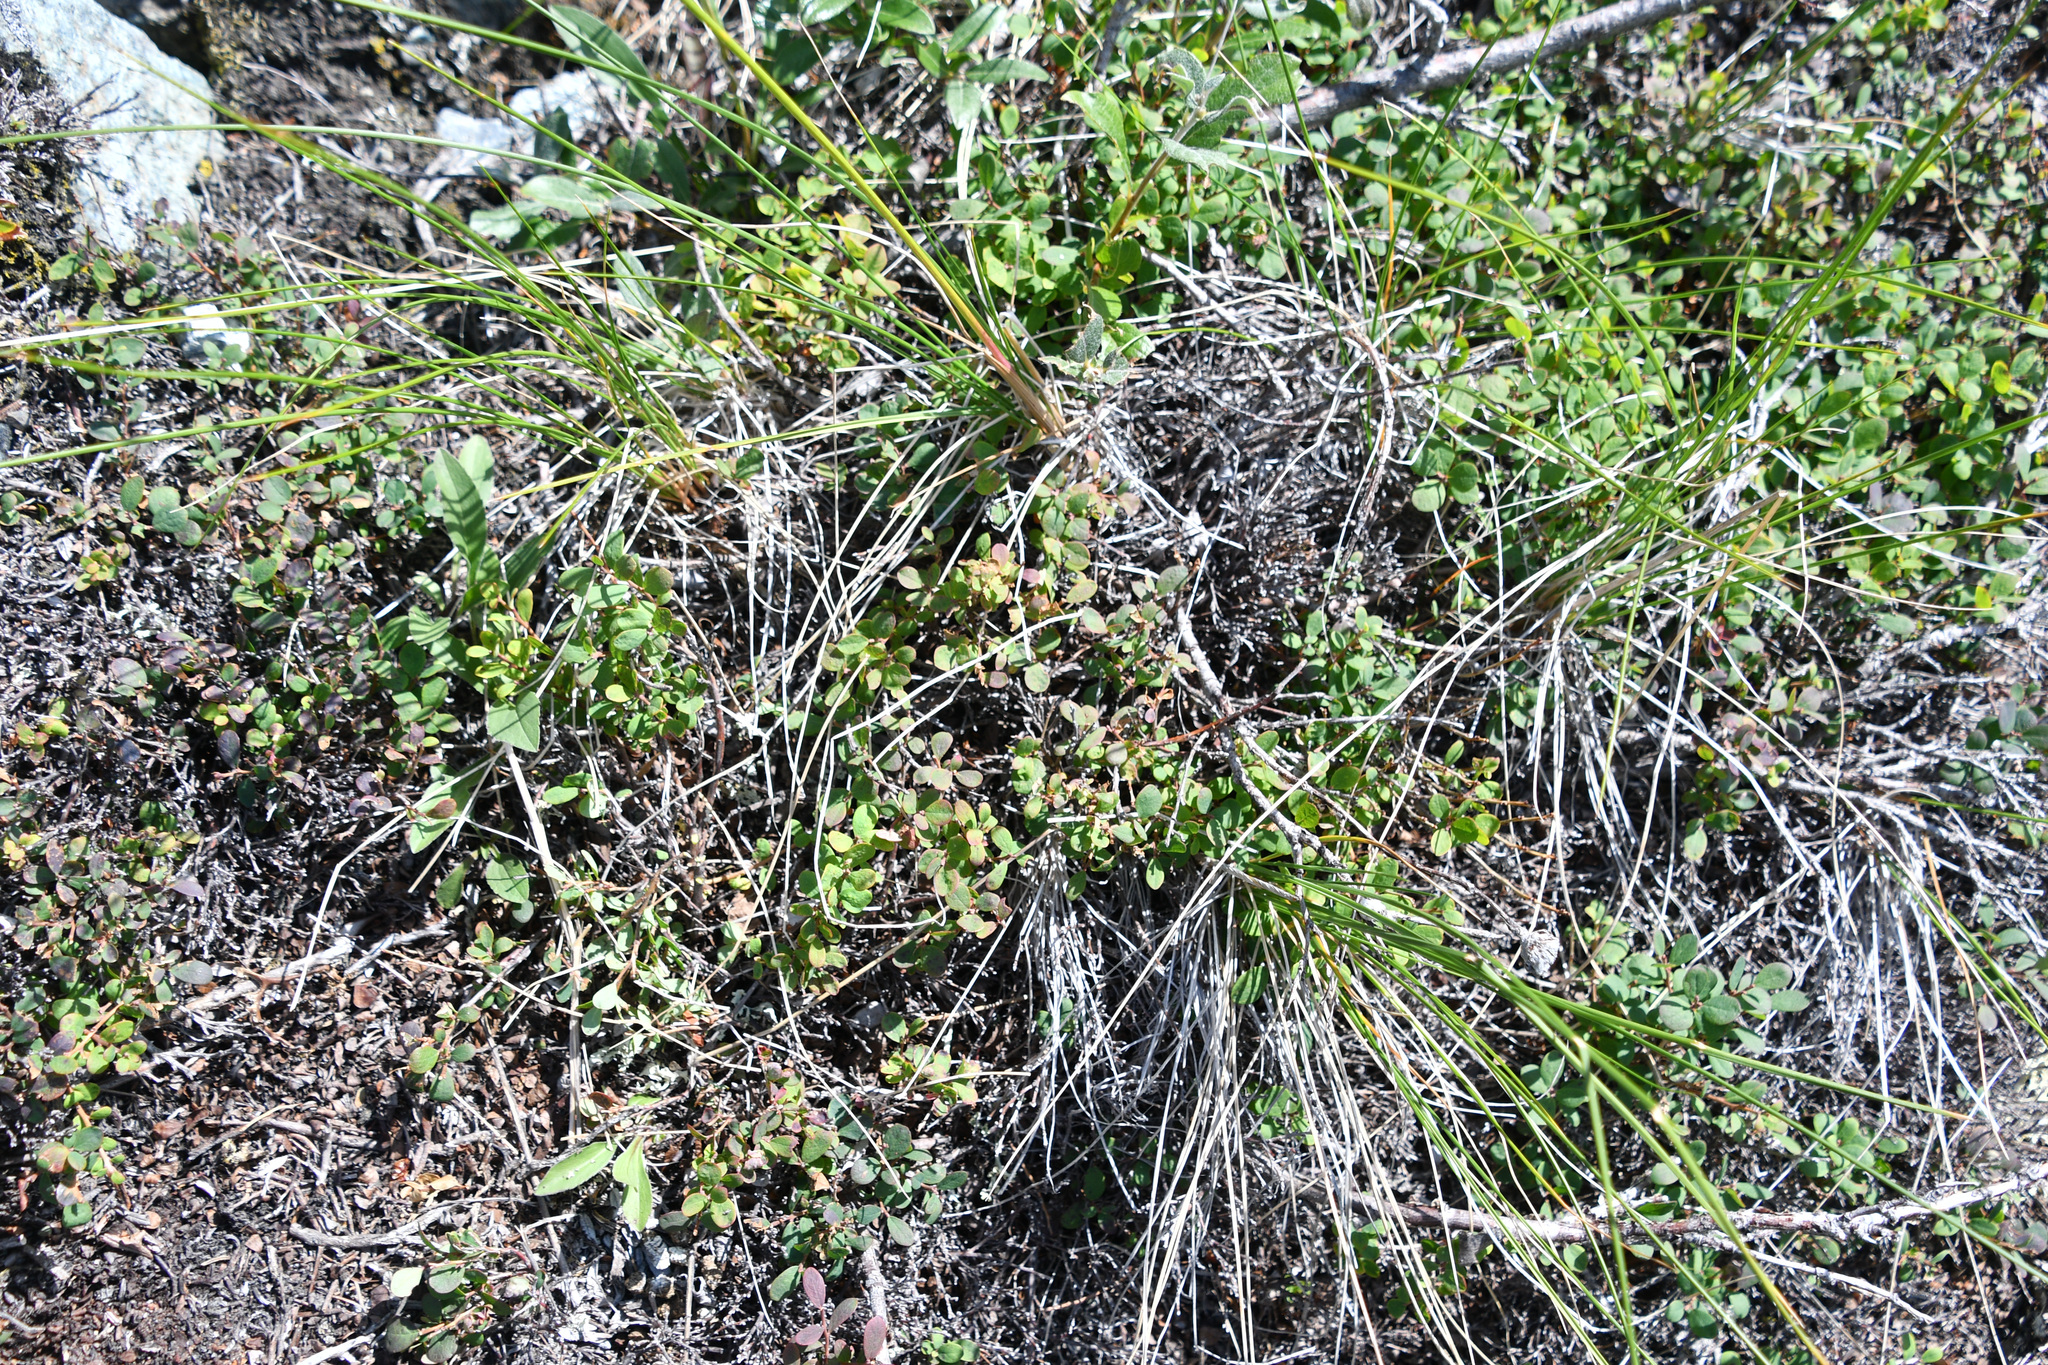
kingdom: Plantae
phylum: Tracheophyta
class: Magnoliopsida
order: Ericales
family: Ericaceae
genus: Vaccinium
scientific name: Vaccinium uliginosum
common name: Bog bilberry
